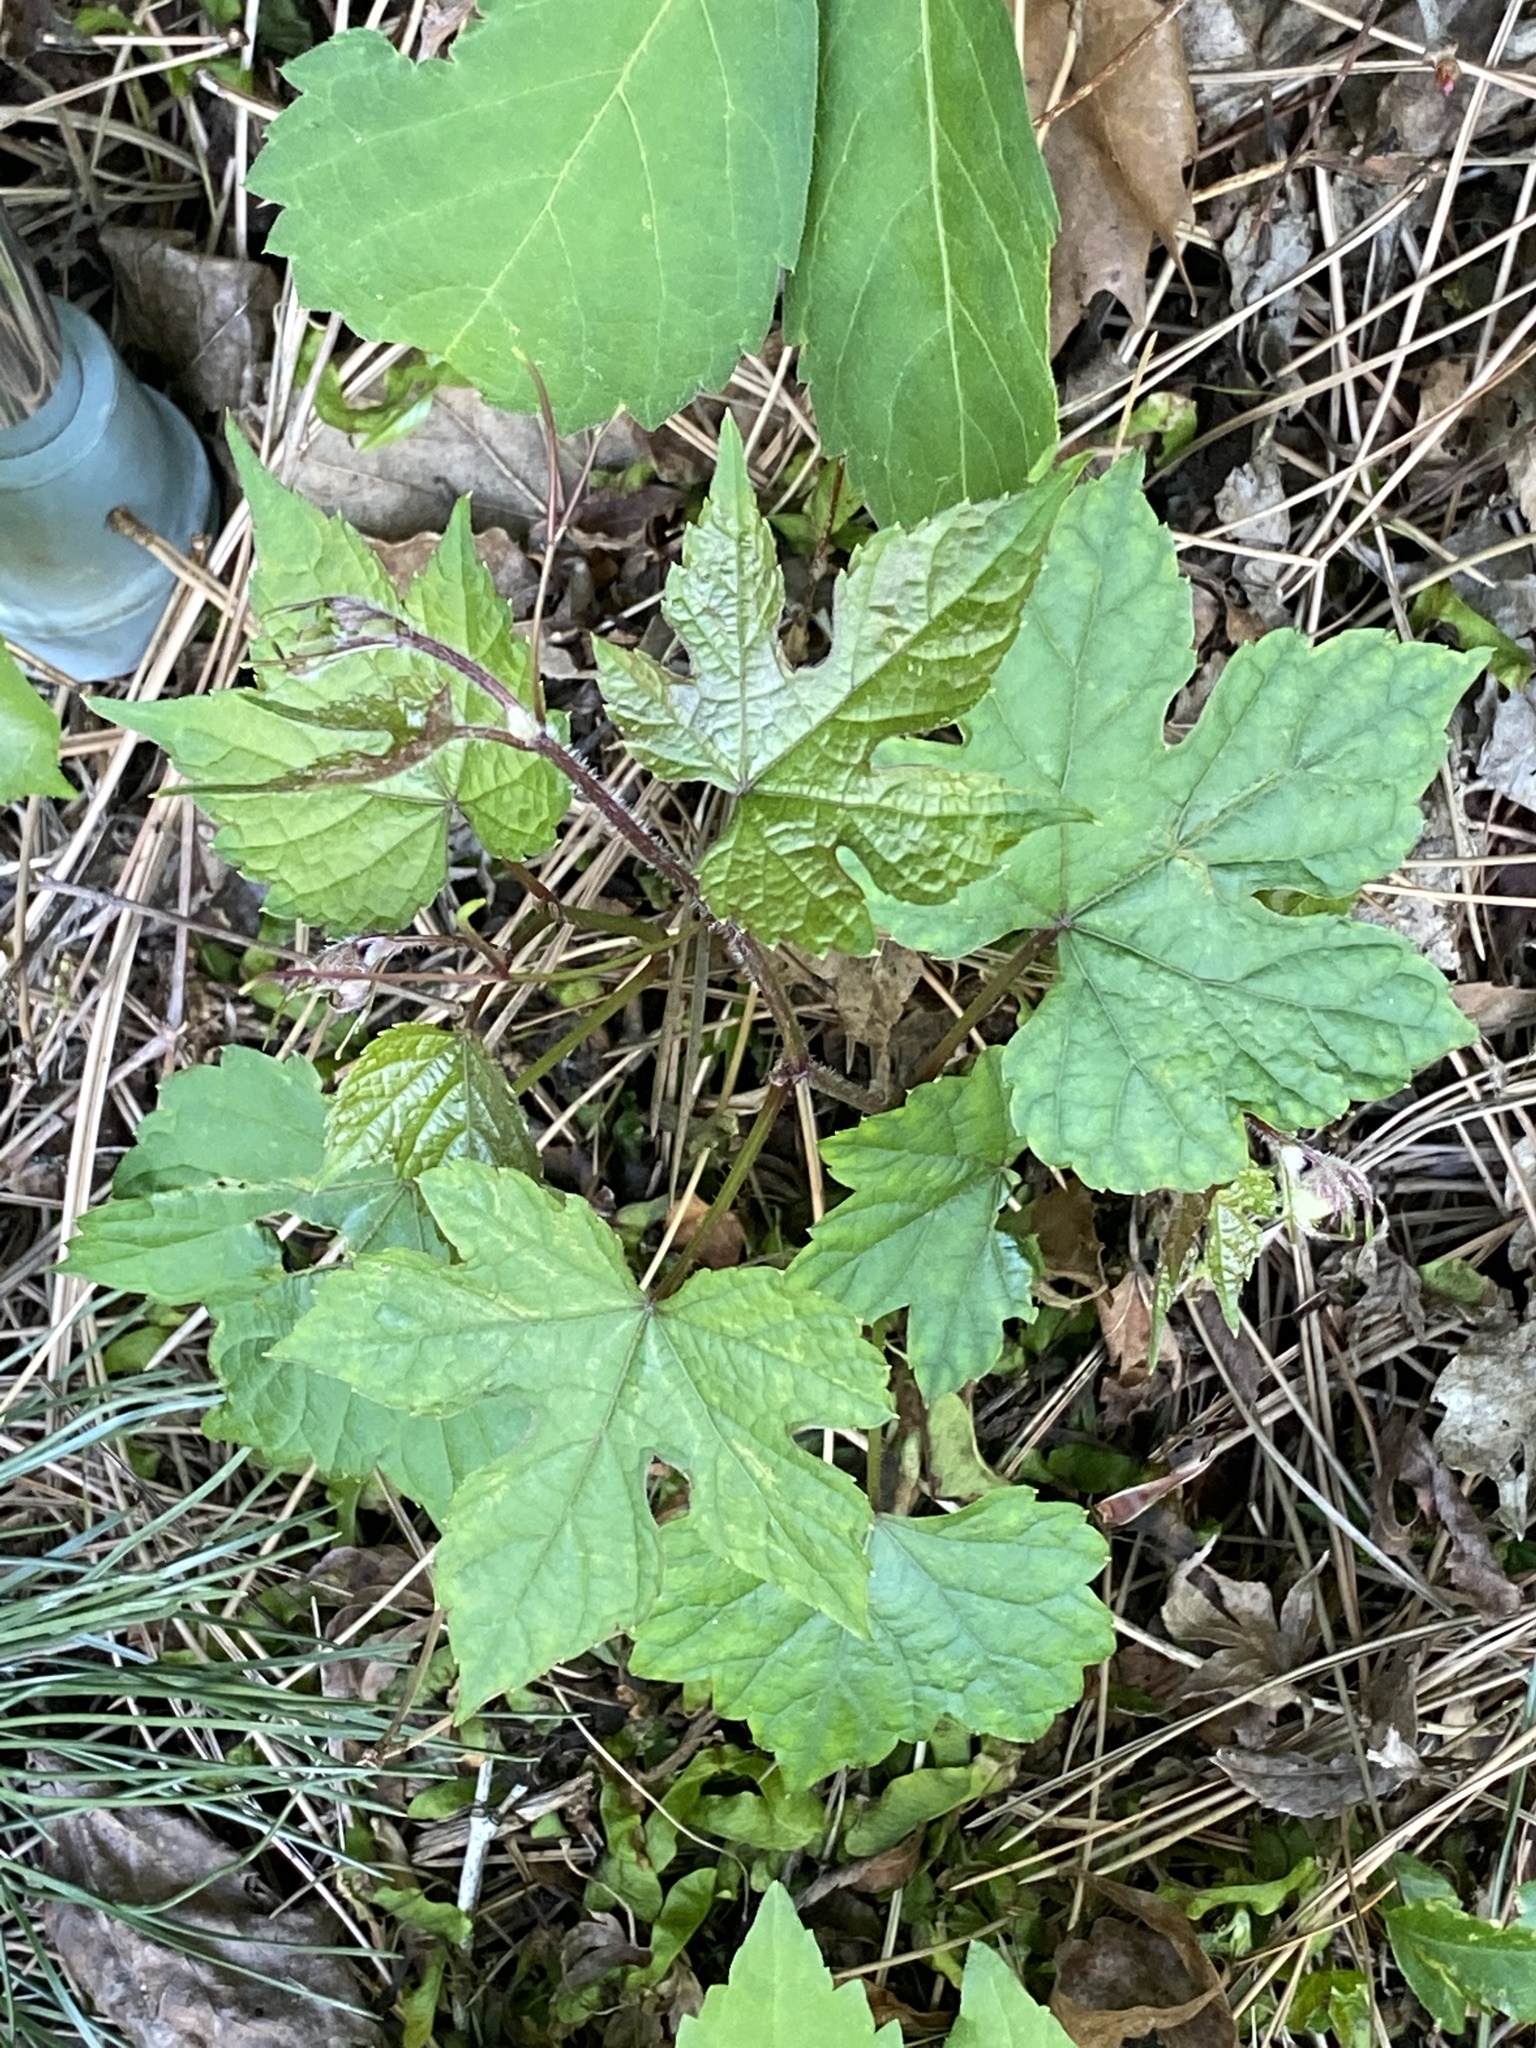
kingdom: Plantae
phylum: Tracheophyta
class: Magnoliopsida
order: Vitales
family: Vitaceae
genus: Ampelopsis
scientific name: Ampelopsis glandulosa
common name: Amur peppervine
